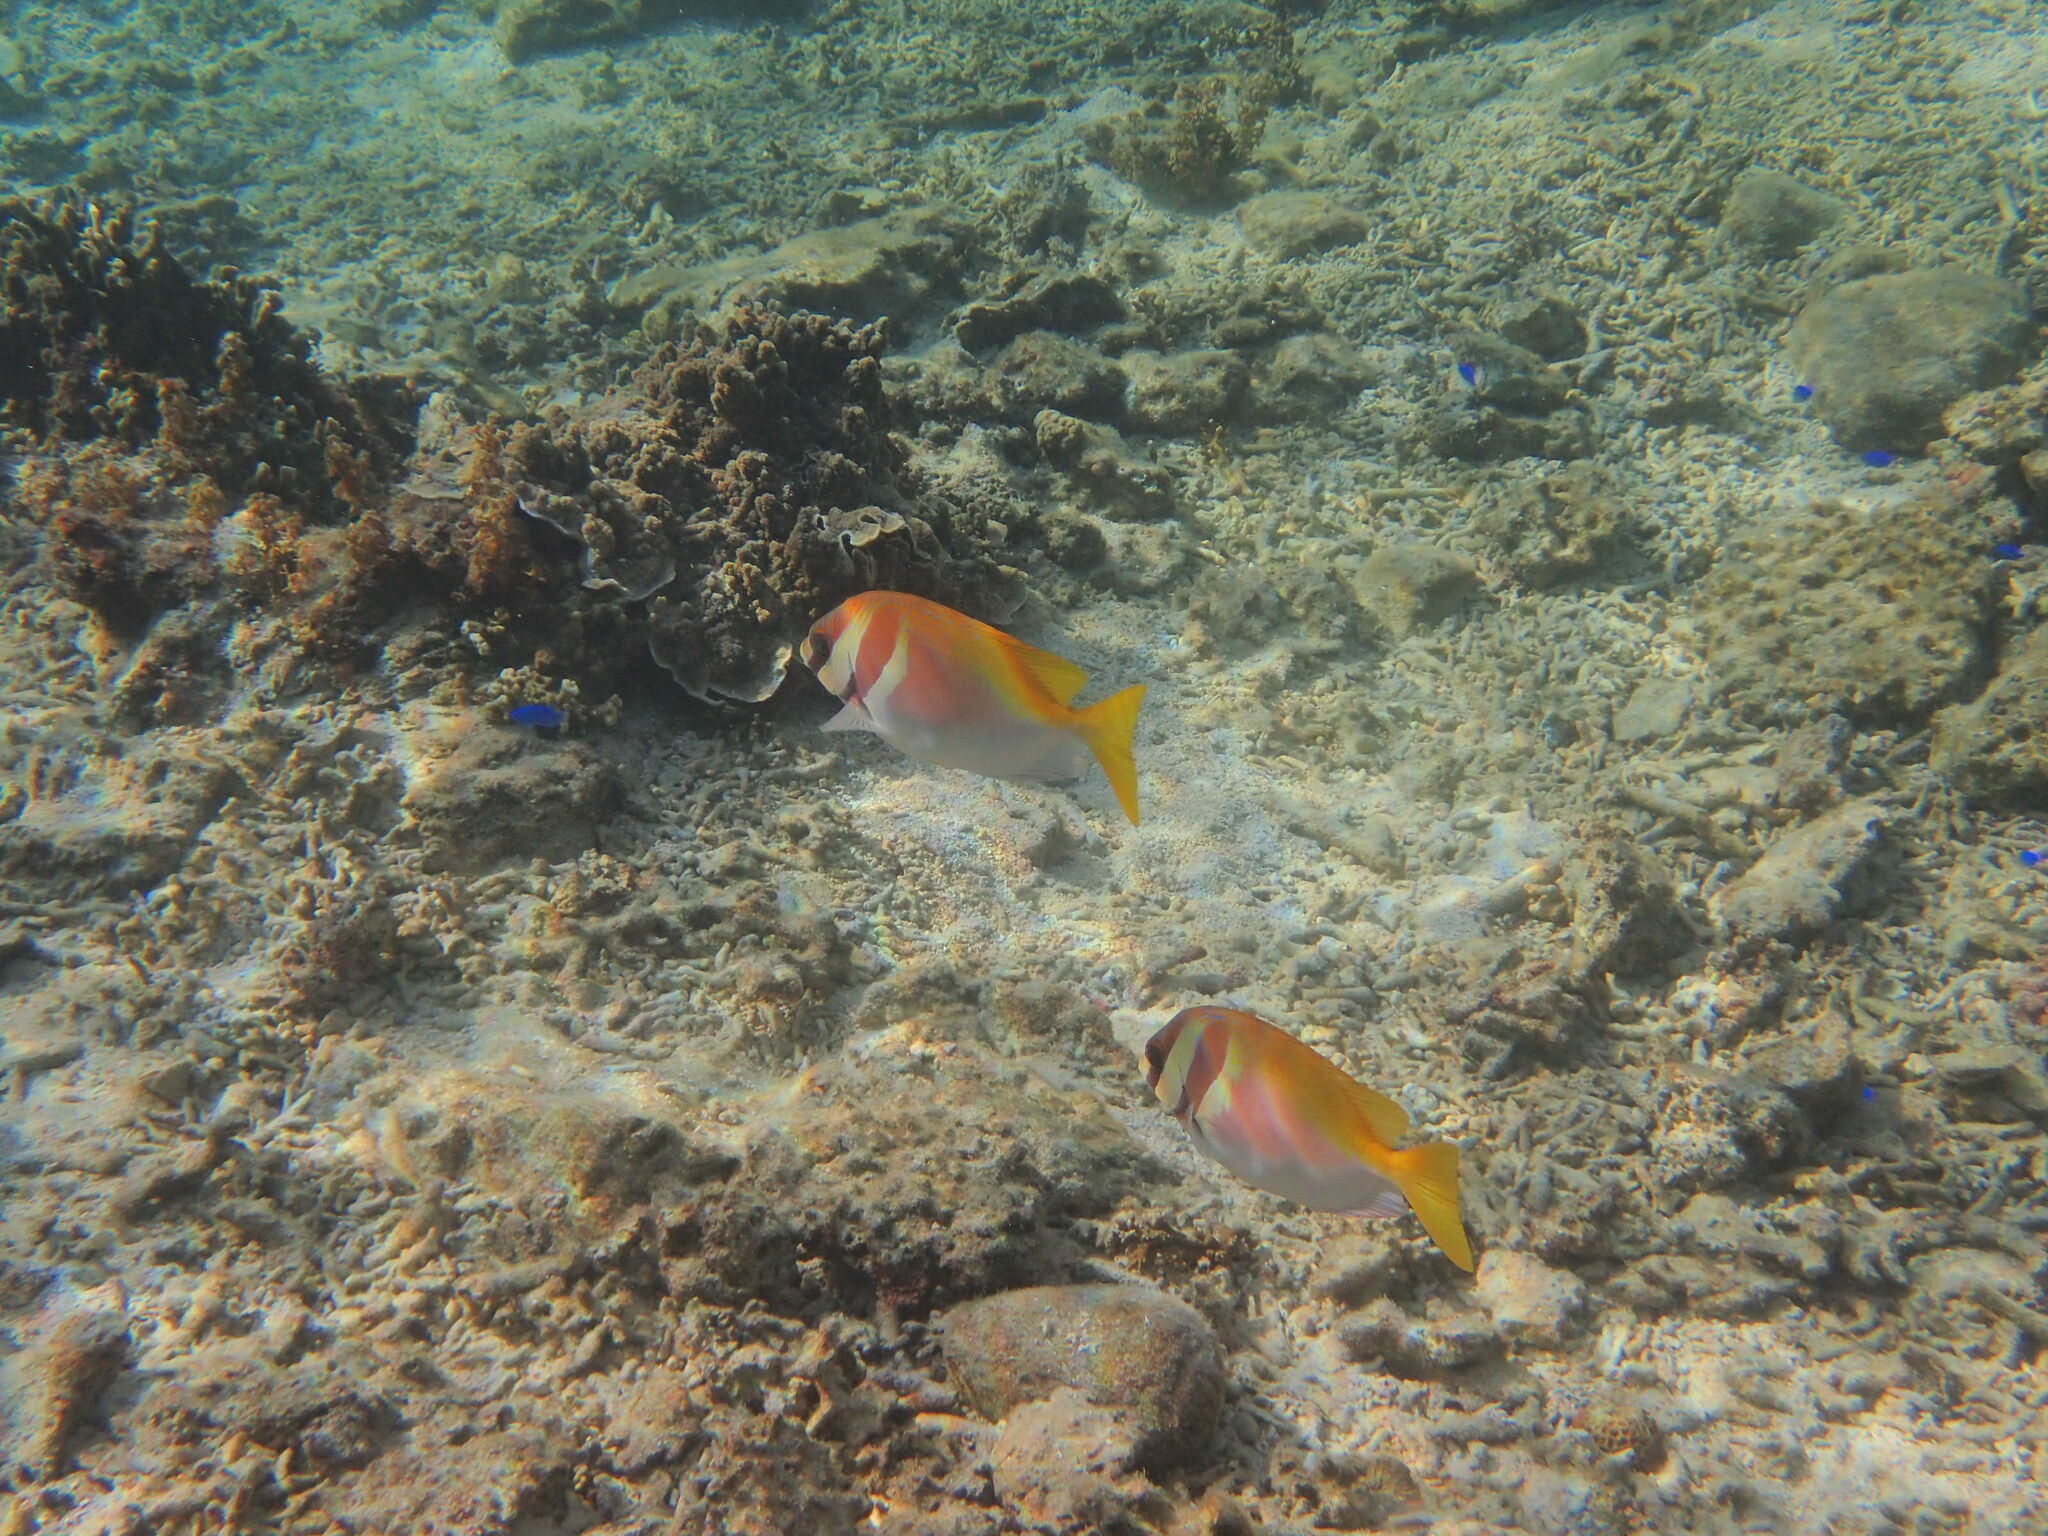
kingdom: Animalia
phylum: Chordata
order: Perciformes
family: Siganidae
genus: Siganus
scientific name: Siganus virgatus
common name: Barhead spinefoot
